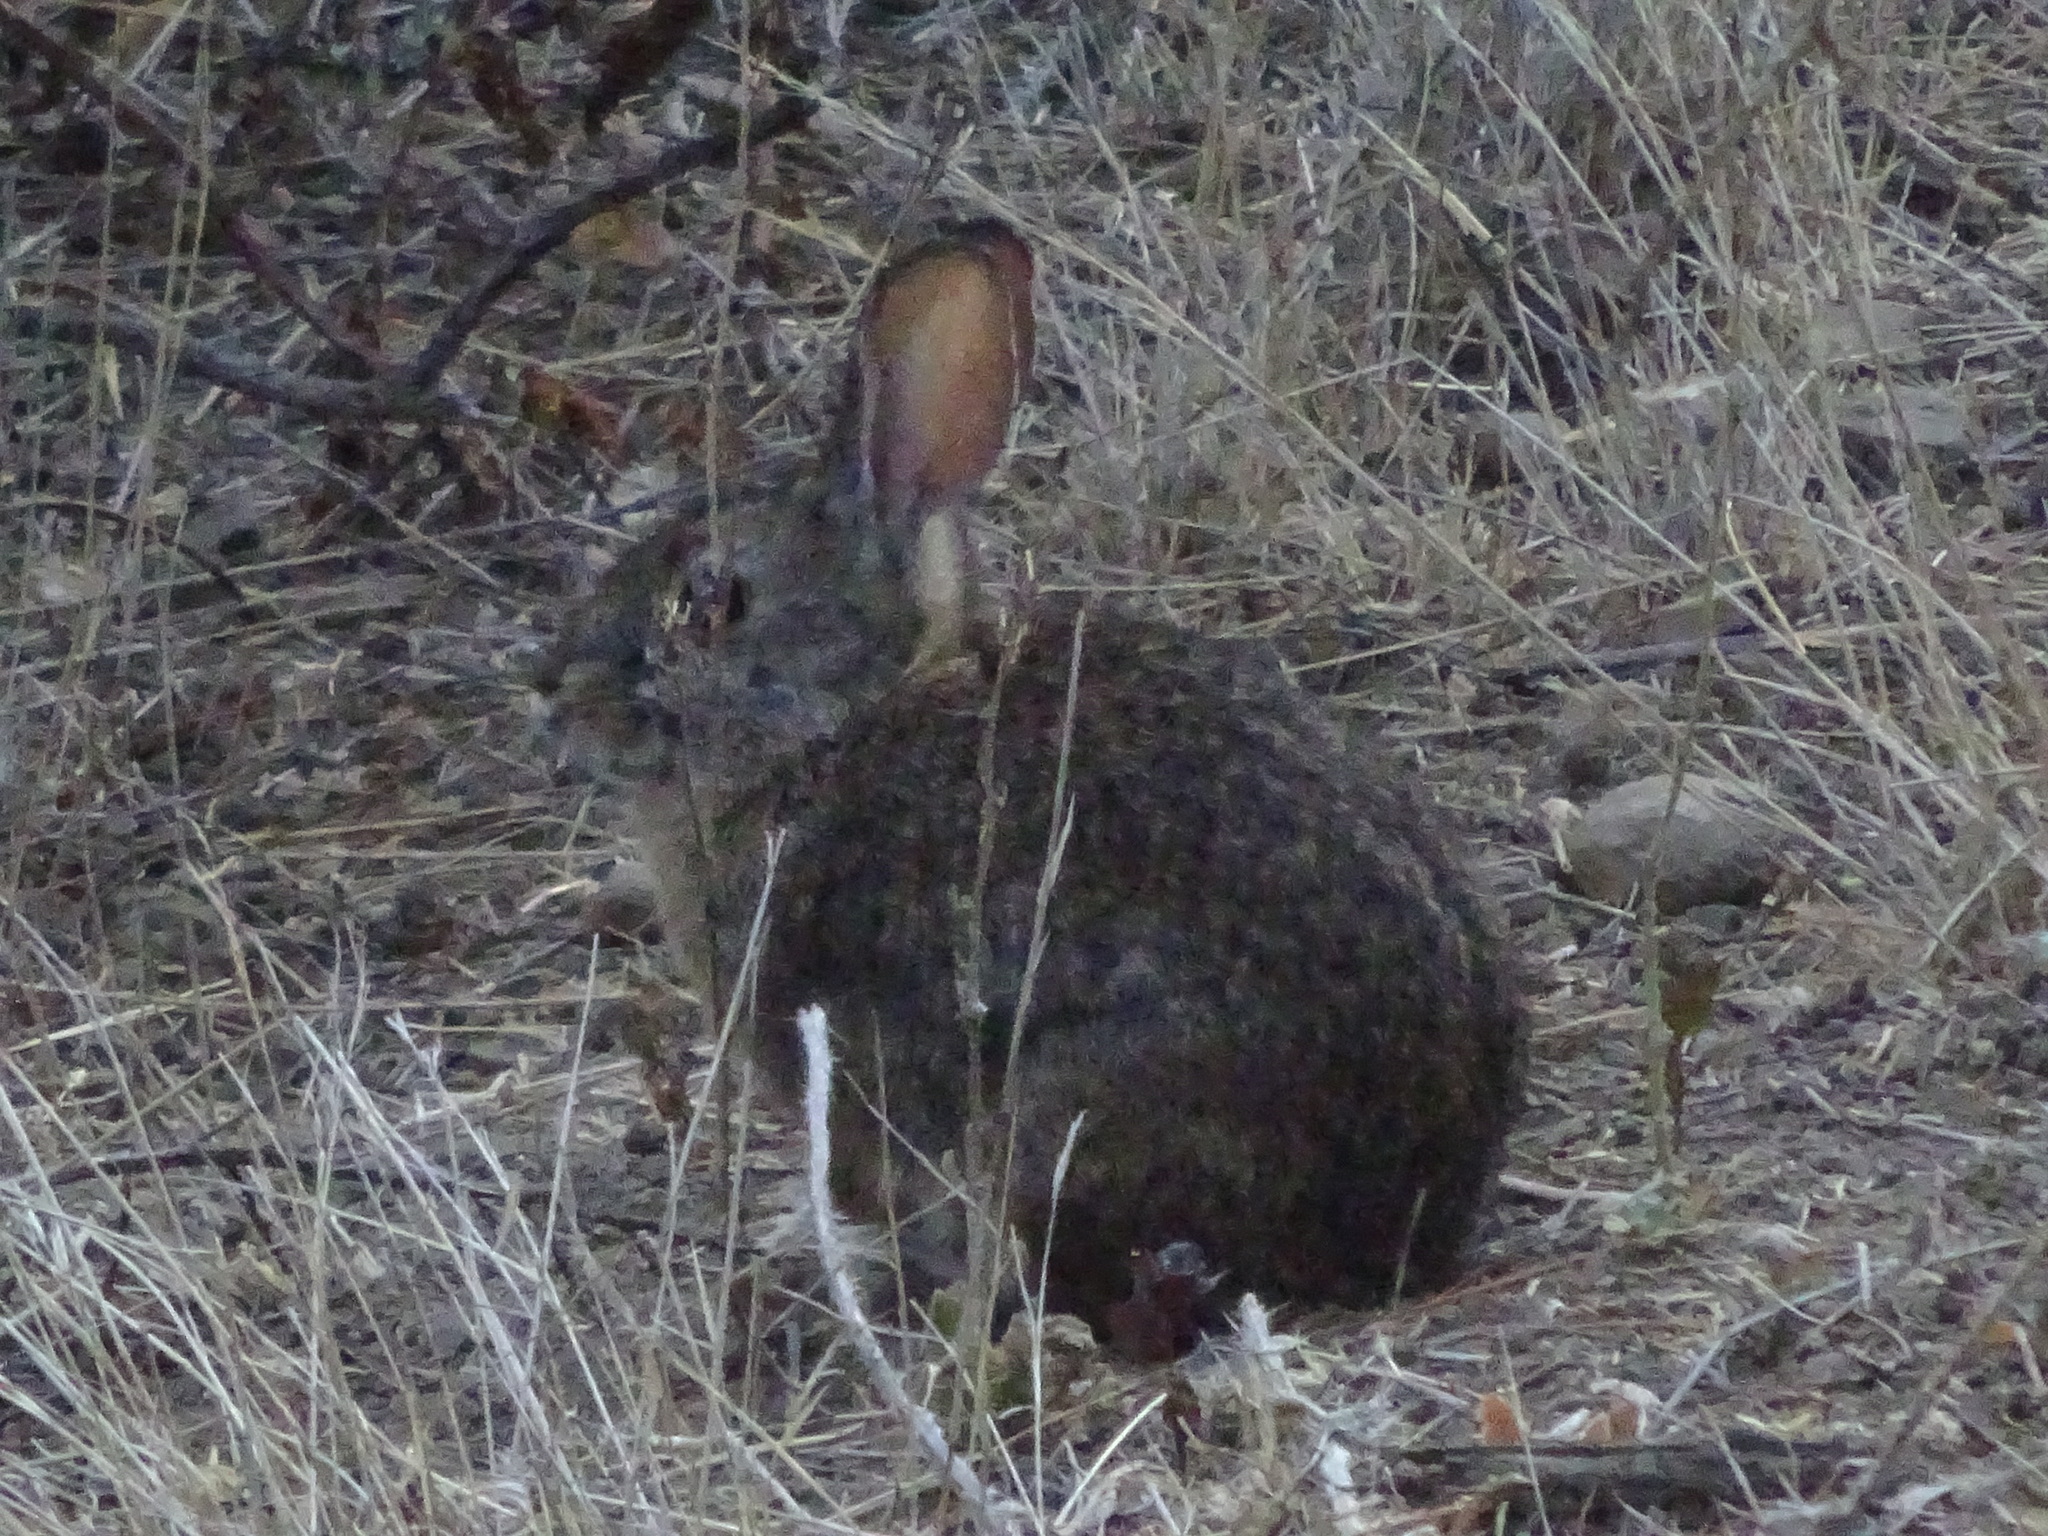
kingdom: Animalia
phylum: Chordata
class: Mammalia
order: Lagomorpha
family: Leporidae
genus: Sylvilagus
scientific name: Sylvilagus bachmani
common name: Brush rabbit
